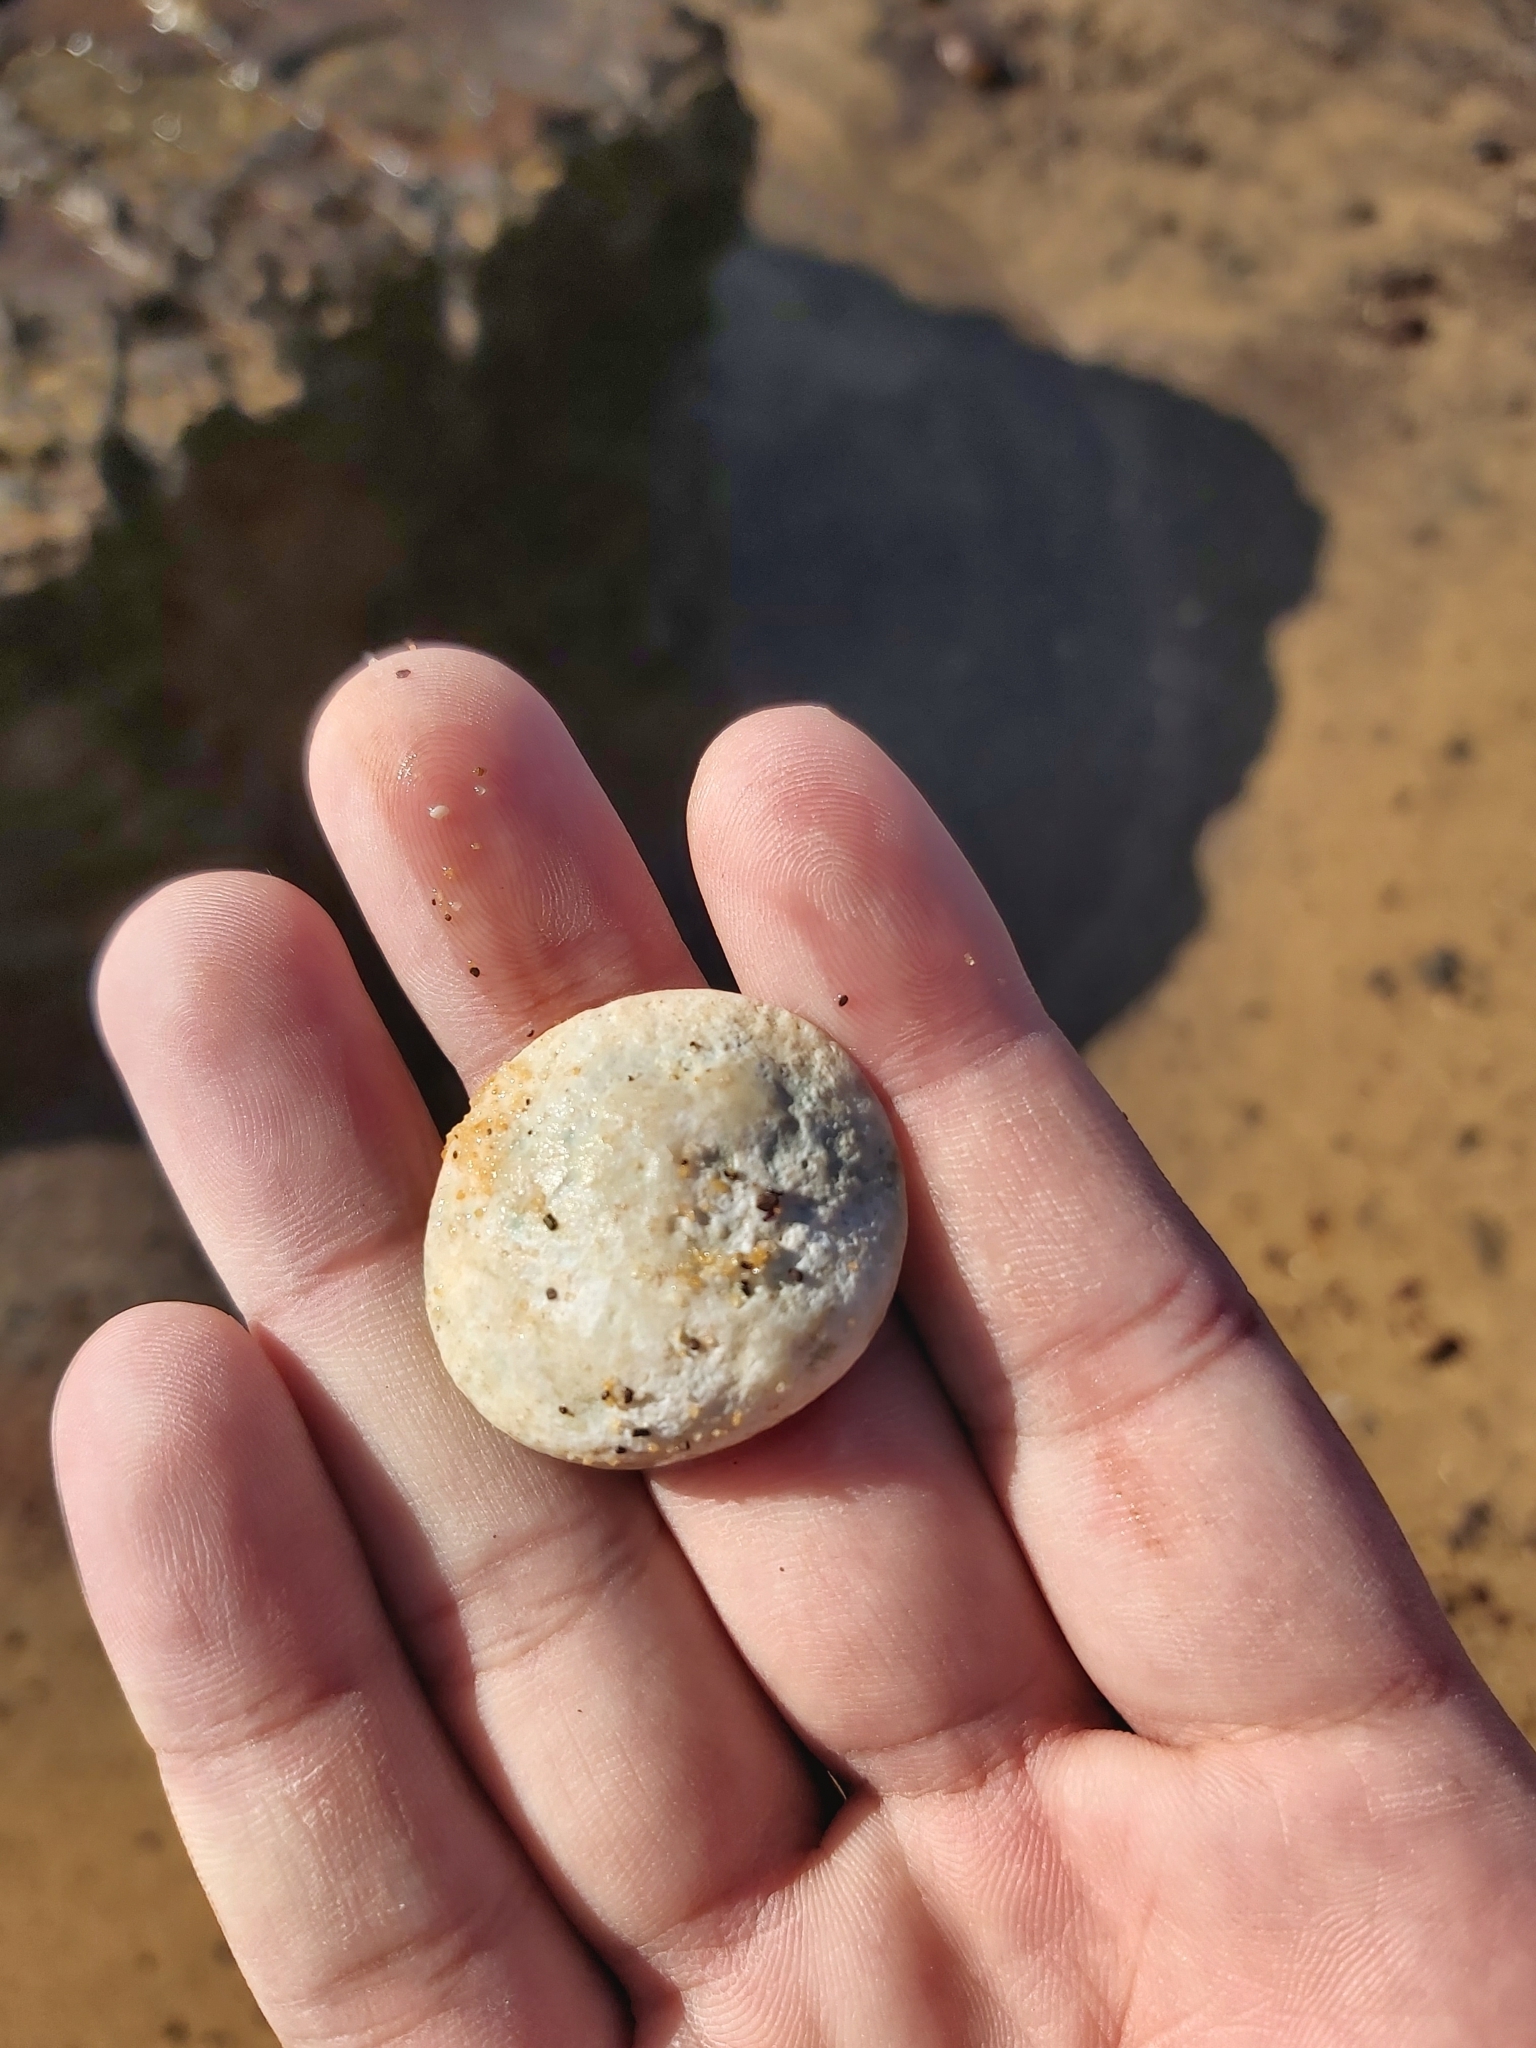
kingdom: Animalia
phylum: Mollusca
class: Gastropoda
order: Trochida
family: Turbinidae
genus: Turbo
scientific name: Turbo militaris
